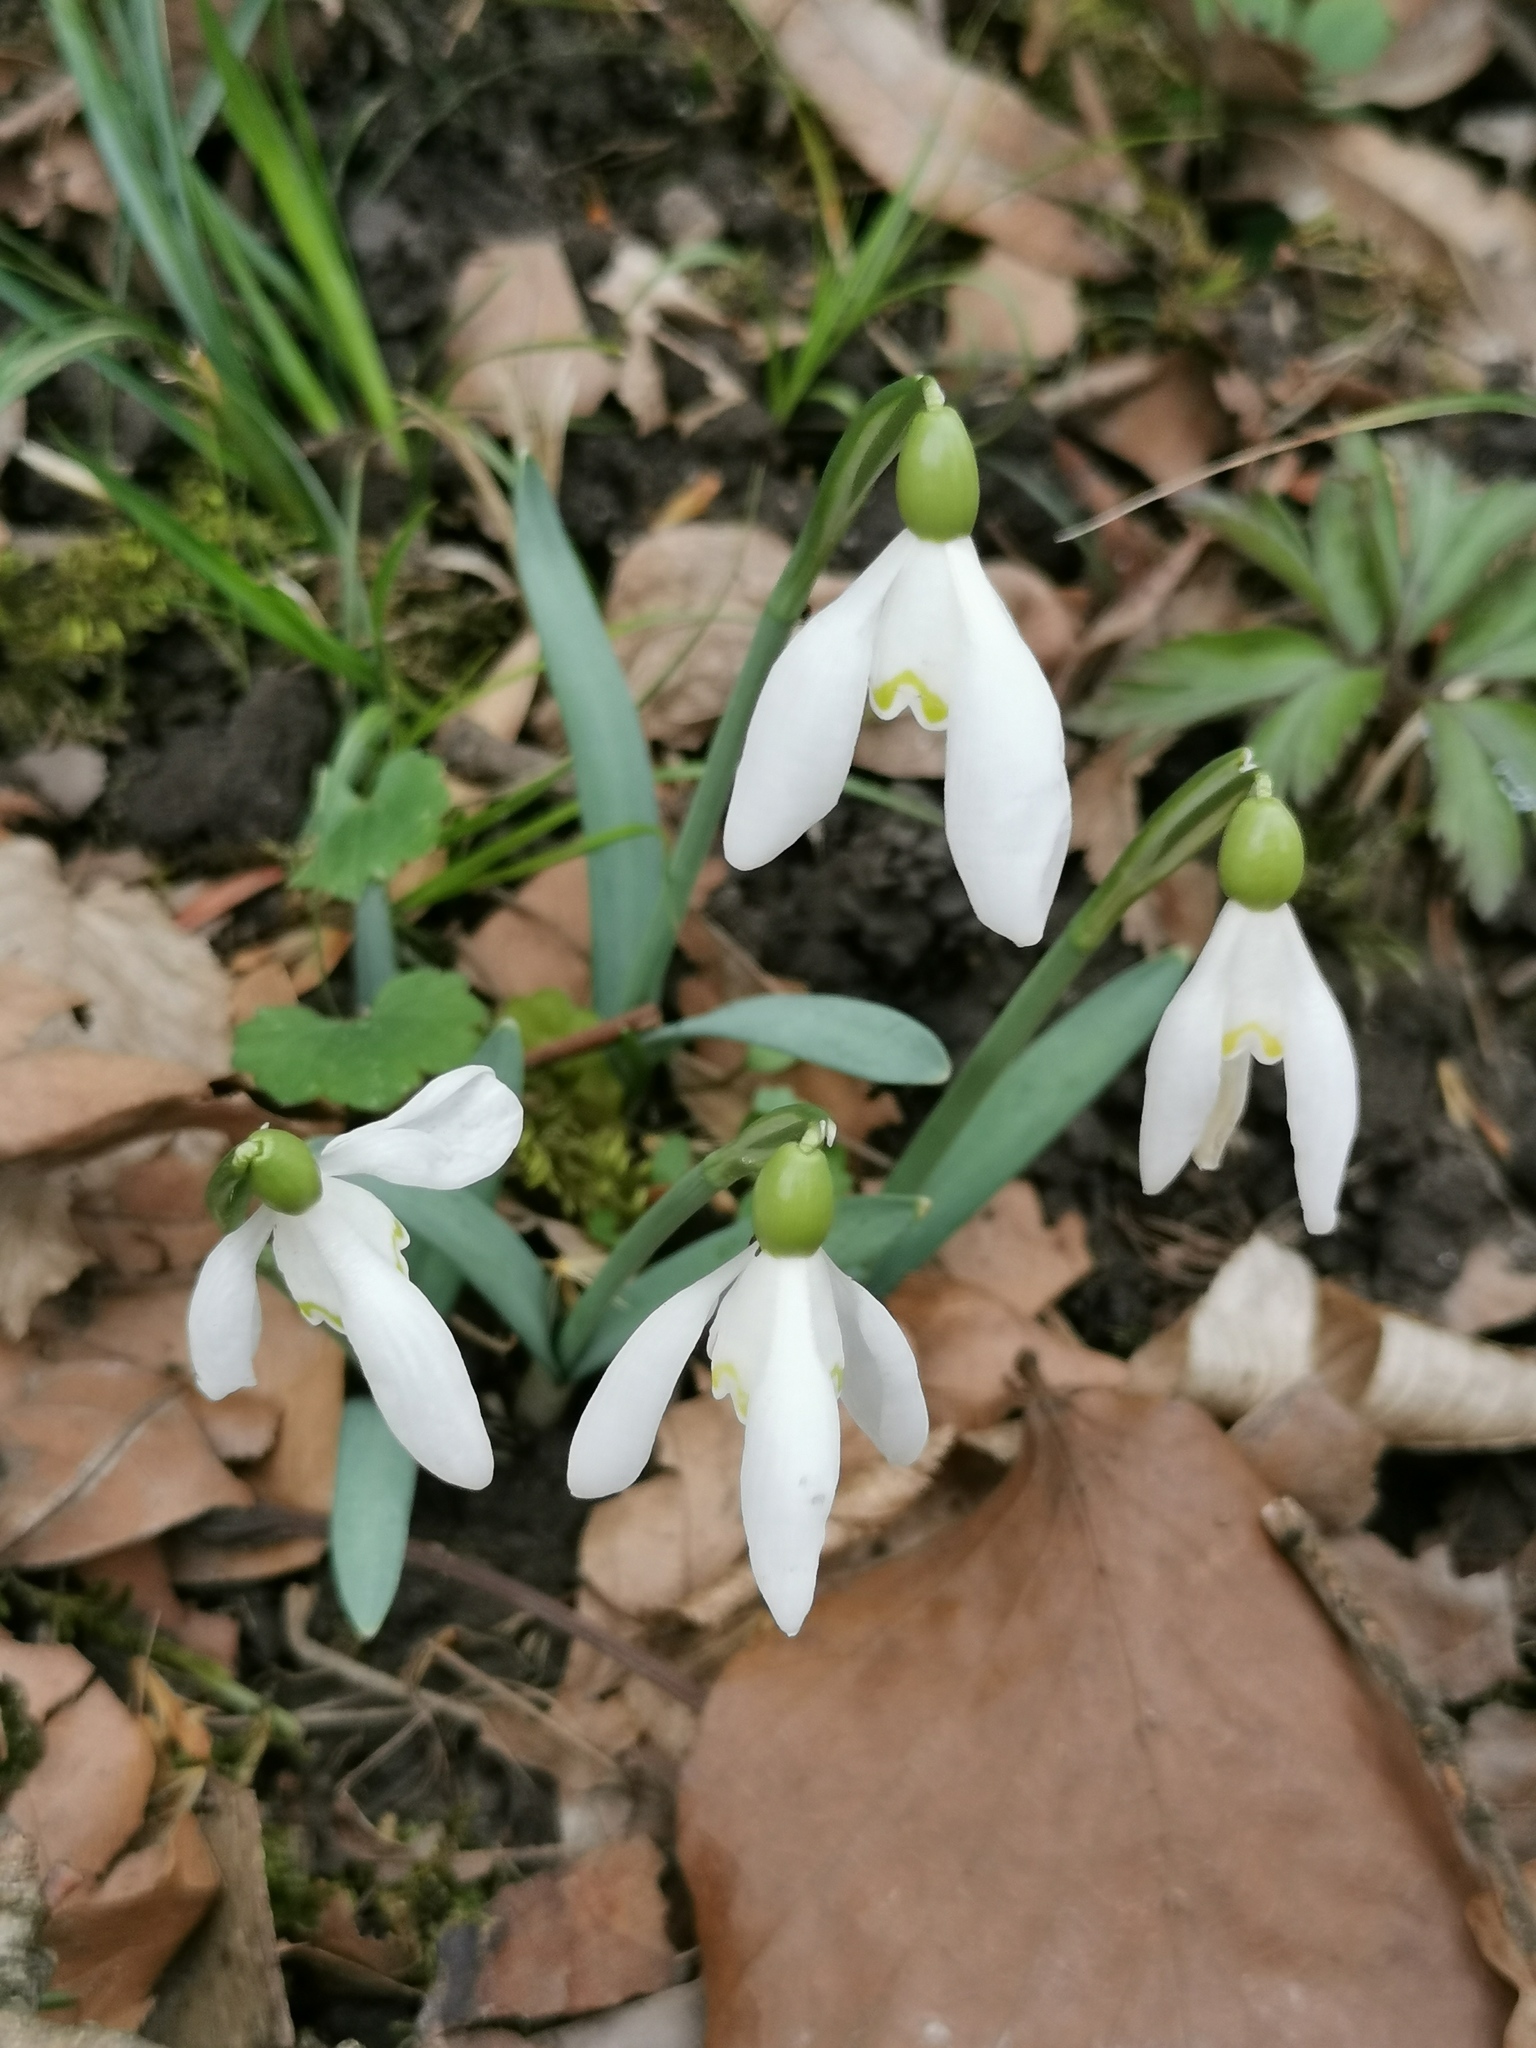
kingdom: Plantae
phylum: Tracheophyta
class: Liliopsida
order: Asparagales
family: Amaryllidaceae
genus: Galanthus
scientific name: Galanthus nivalis
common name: Snowdrop
